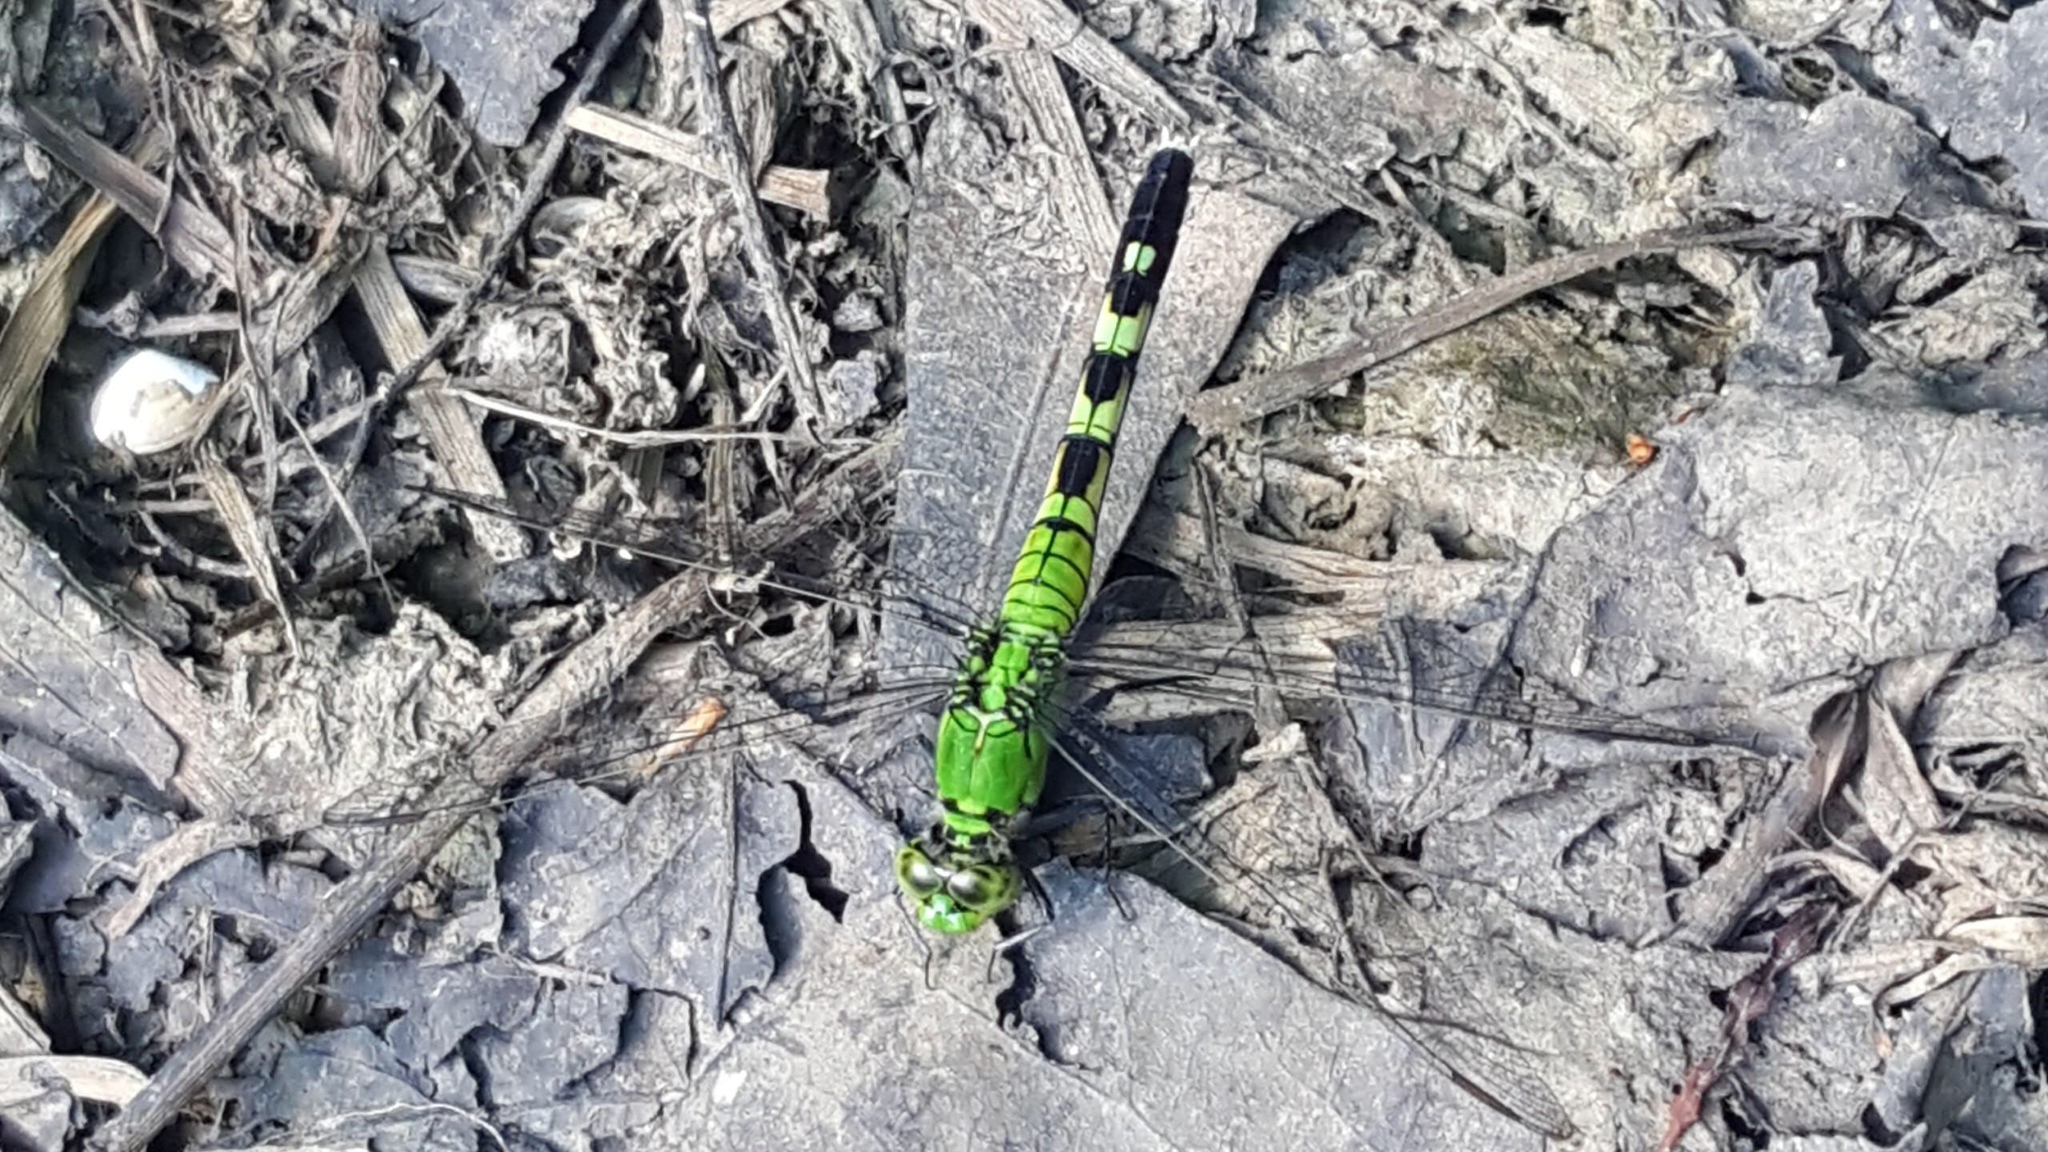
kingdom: Animalia
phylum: Arthropoda
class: Insecta
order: Odonata
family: Libellulidae
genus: Erythemis
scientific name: Erythemis simplicicollis
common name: Eastern pondhawk
